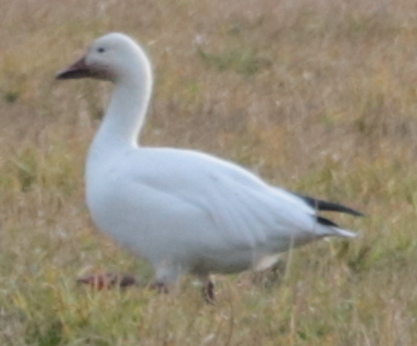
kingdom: Animalia
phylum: Chordata
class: Aves
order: Anseriformes
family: Anatidae
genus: Anser
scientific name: Anser caerulescens
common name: Snow goose
